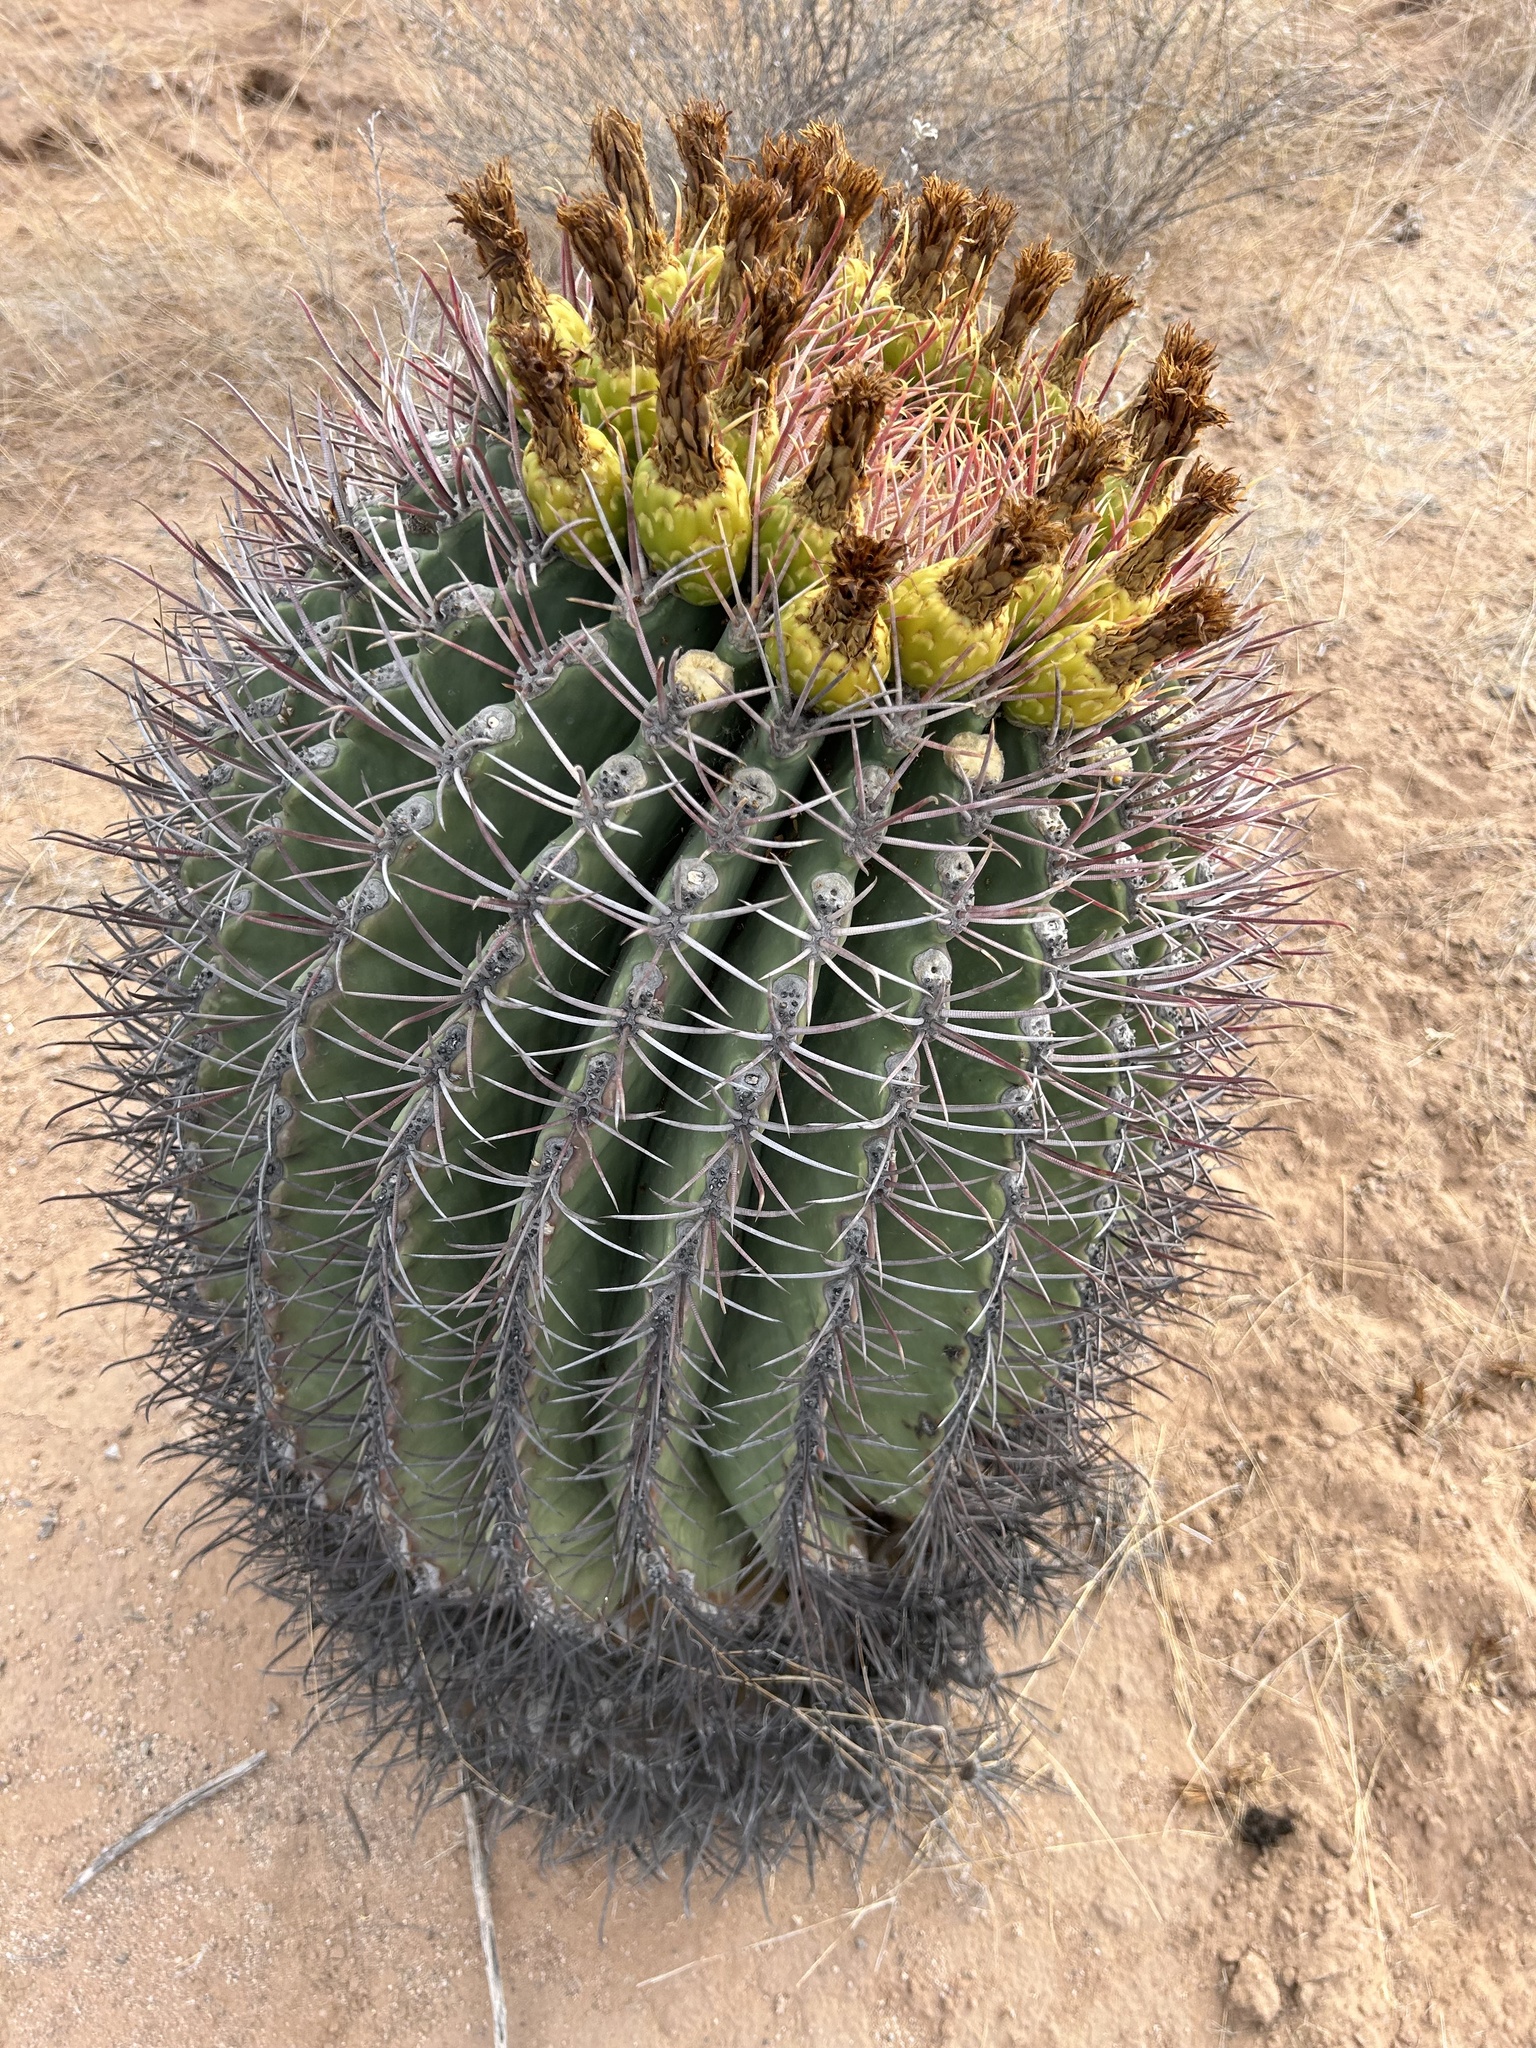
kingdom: Plantae
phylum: Tracheophyta
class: Magnoliopsida
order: Caryophyllales
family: Cactaceae
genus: Ferocactus
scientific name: Ferocactus emoryi
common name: Emory's barrel cactus
